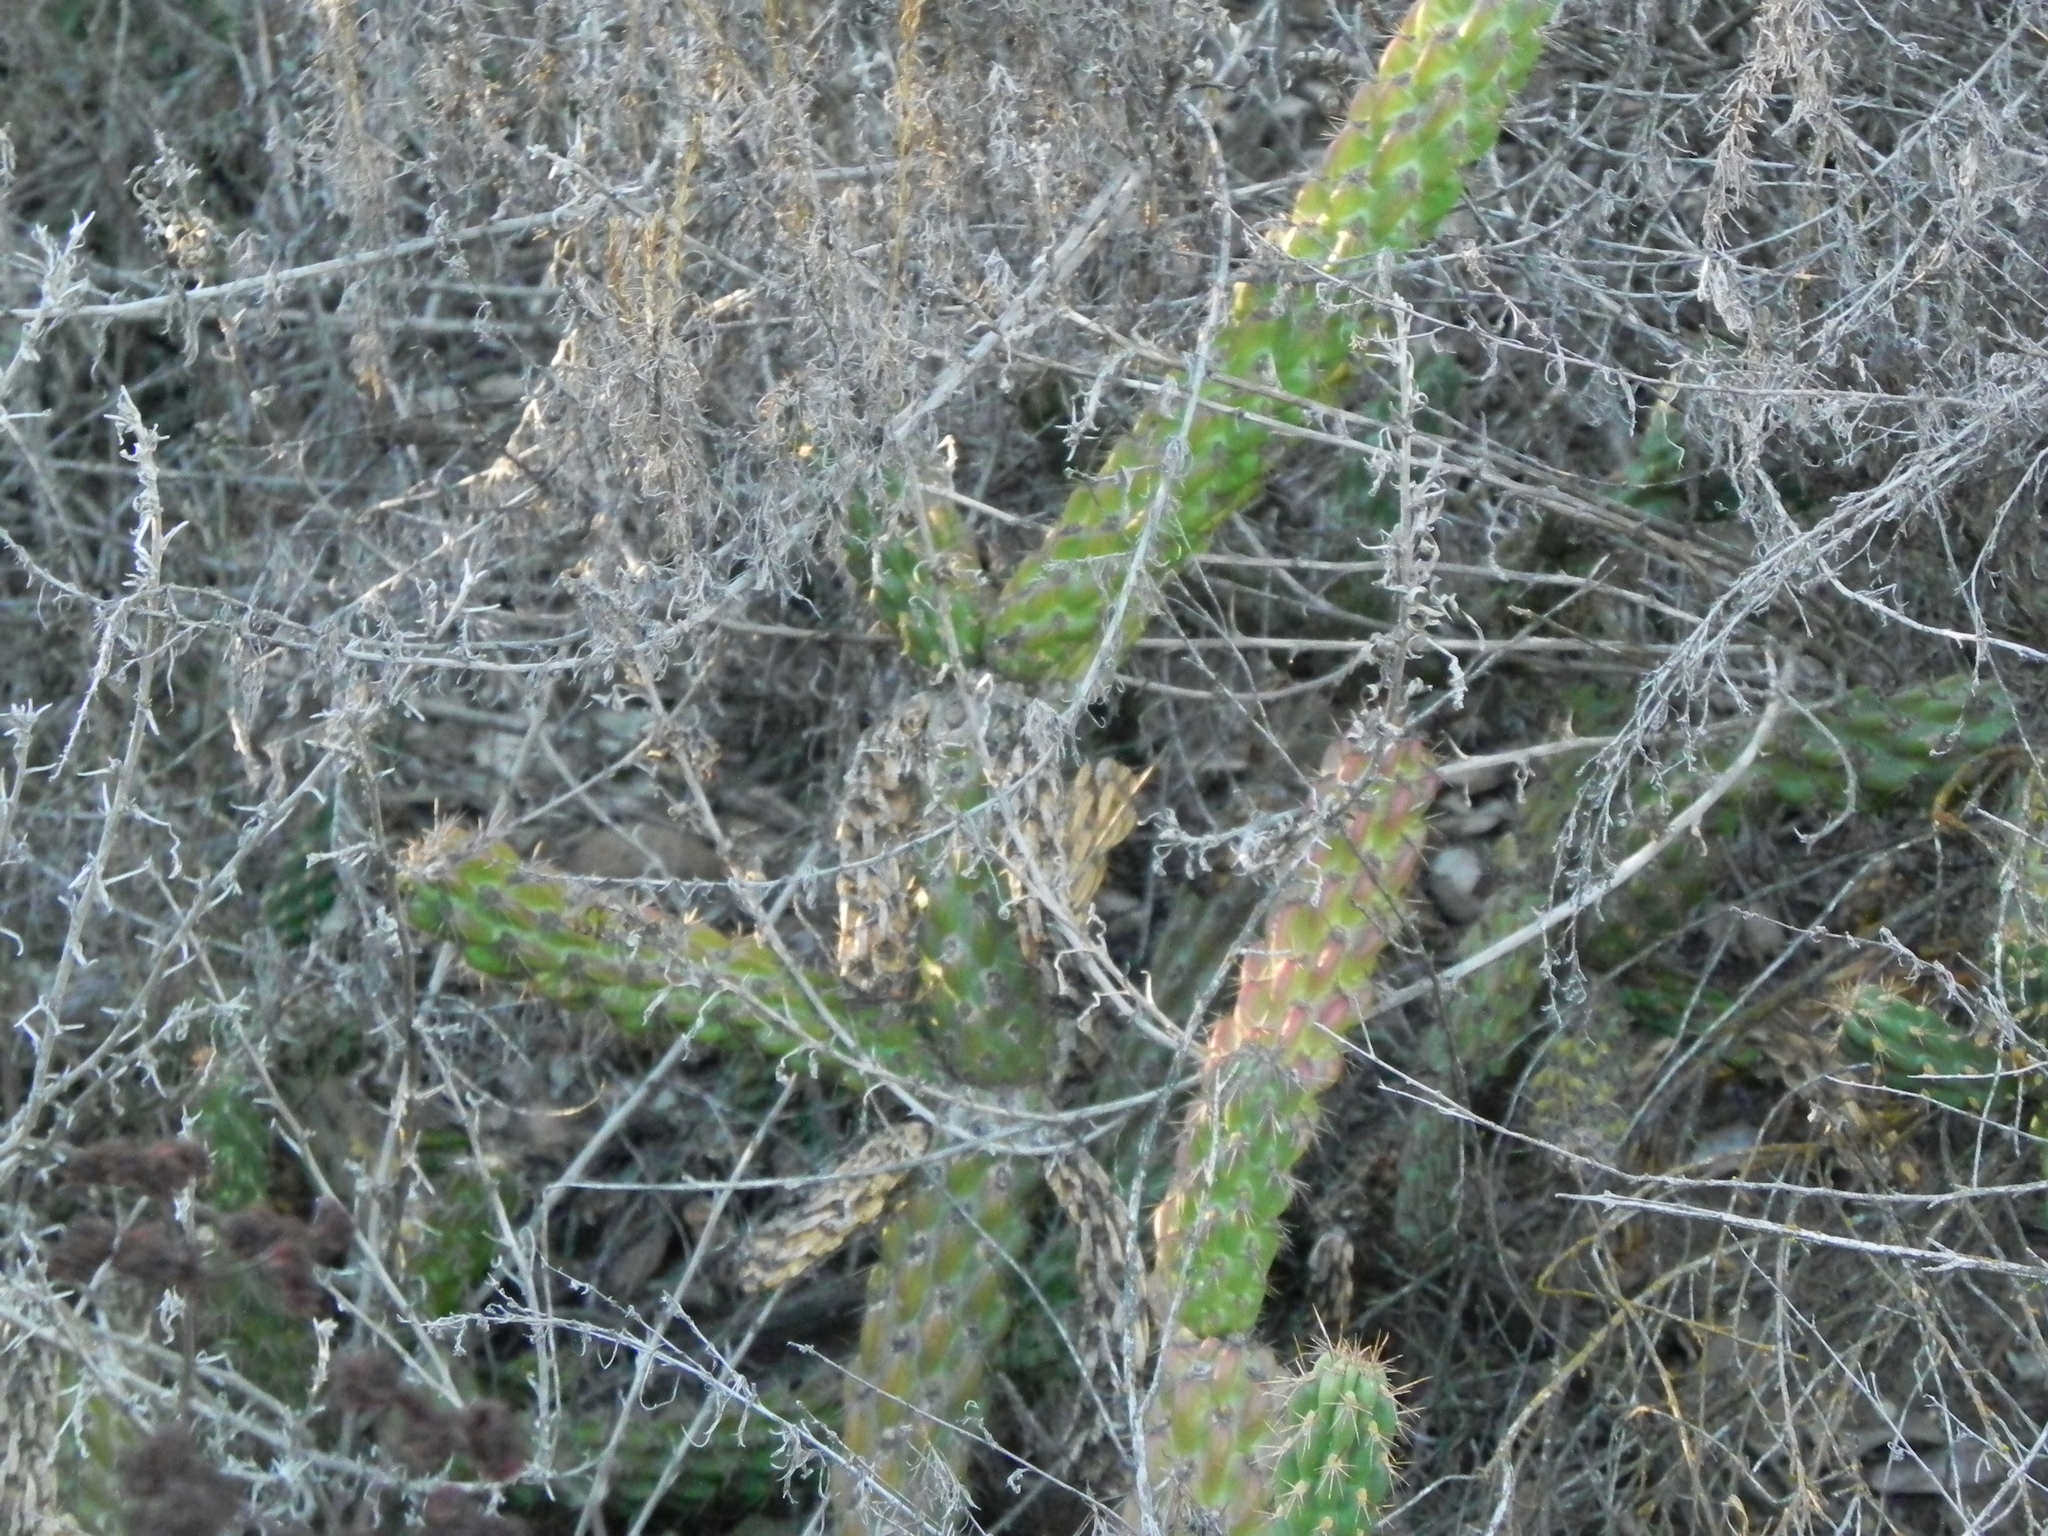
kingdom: Plantae
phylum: Tracheophyta
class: Magnoliopsida
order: Caryophyllales
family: Cactaceae
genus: Cylindropuntia
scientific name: Cylindropuntia californica
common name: Snake cholla
